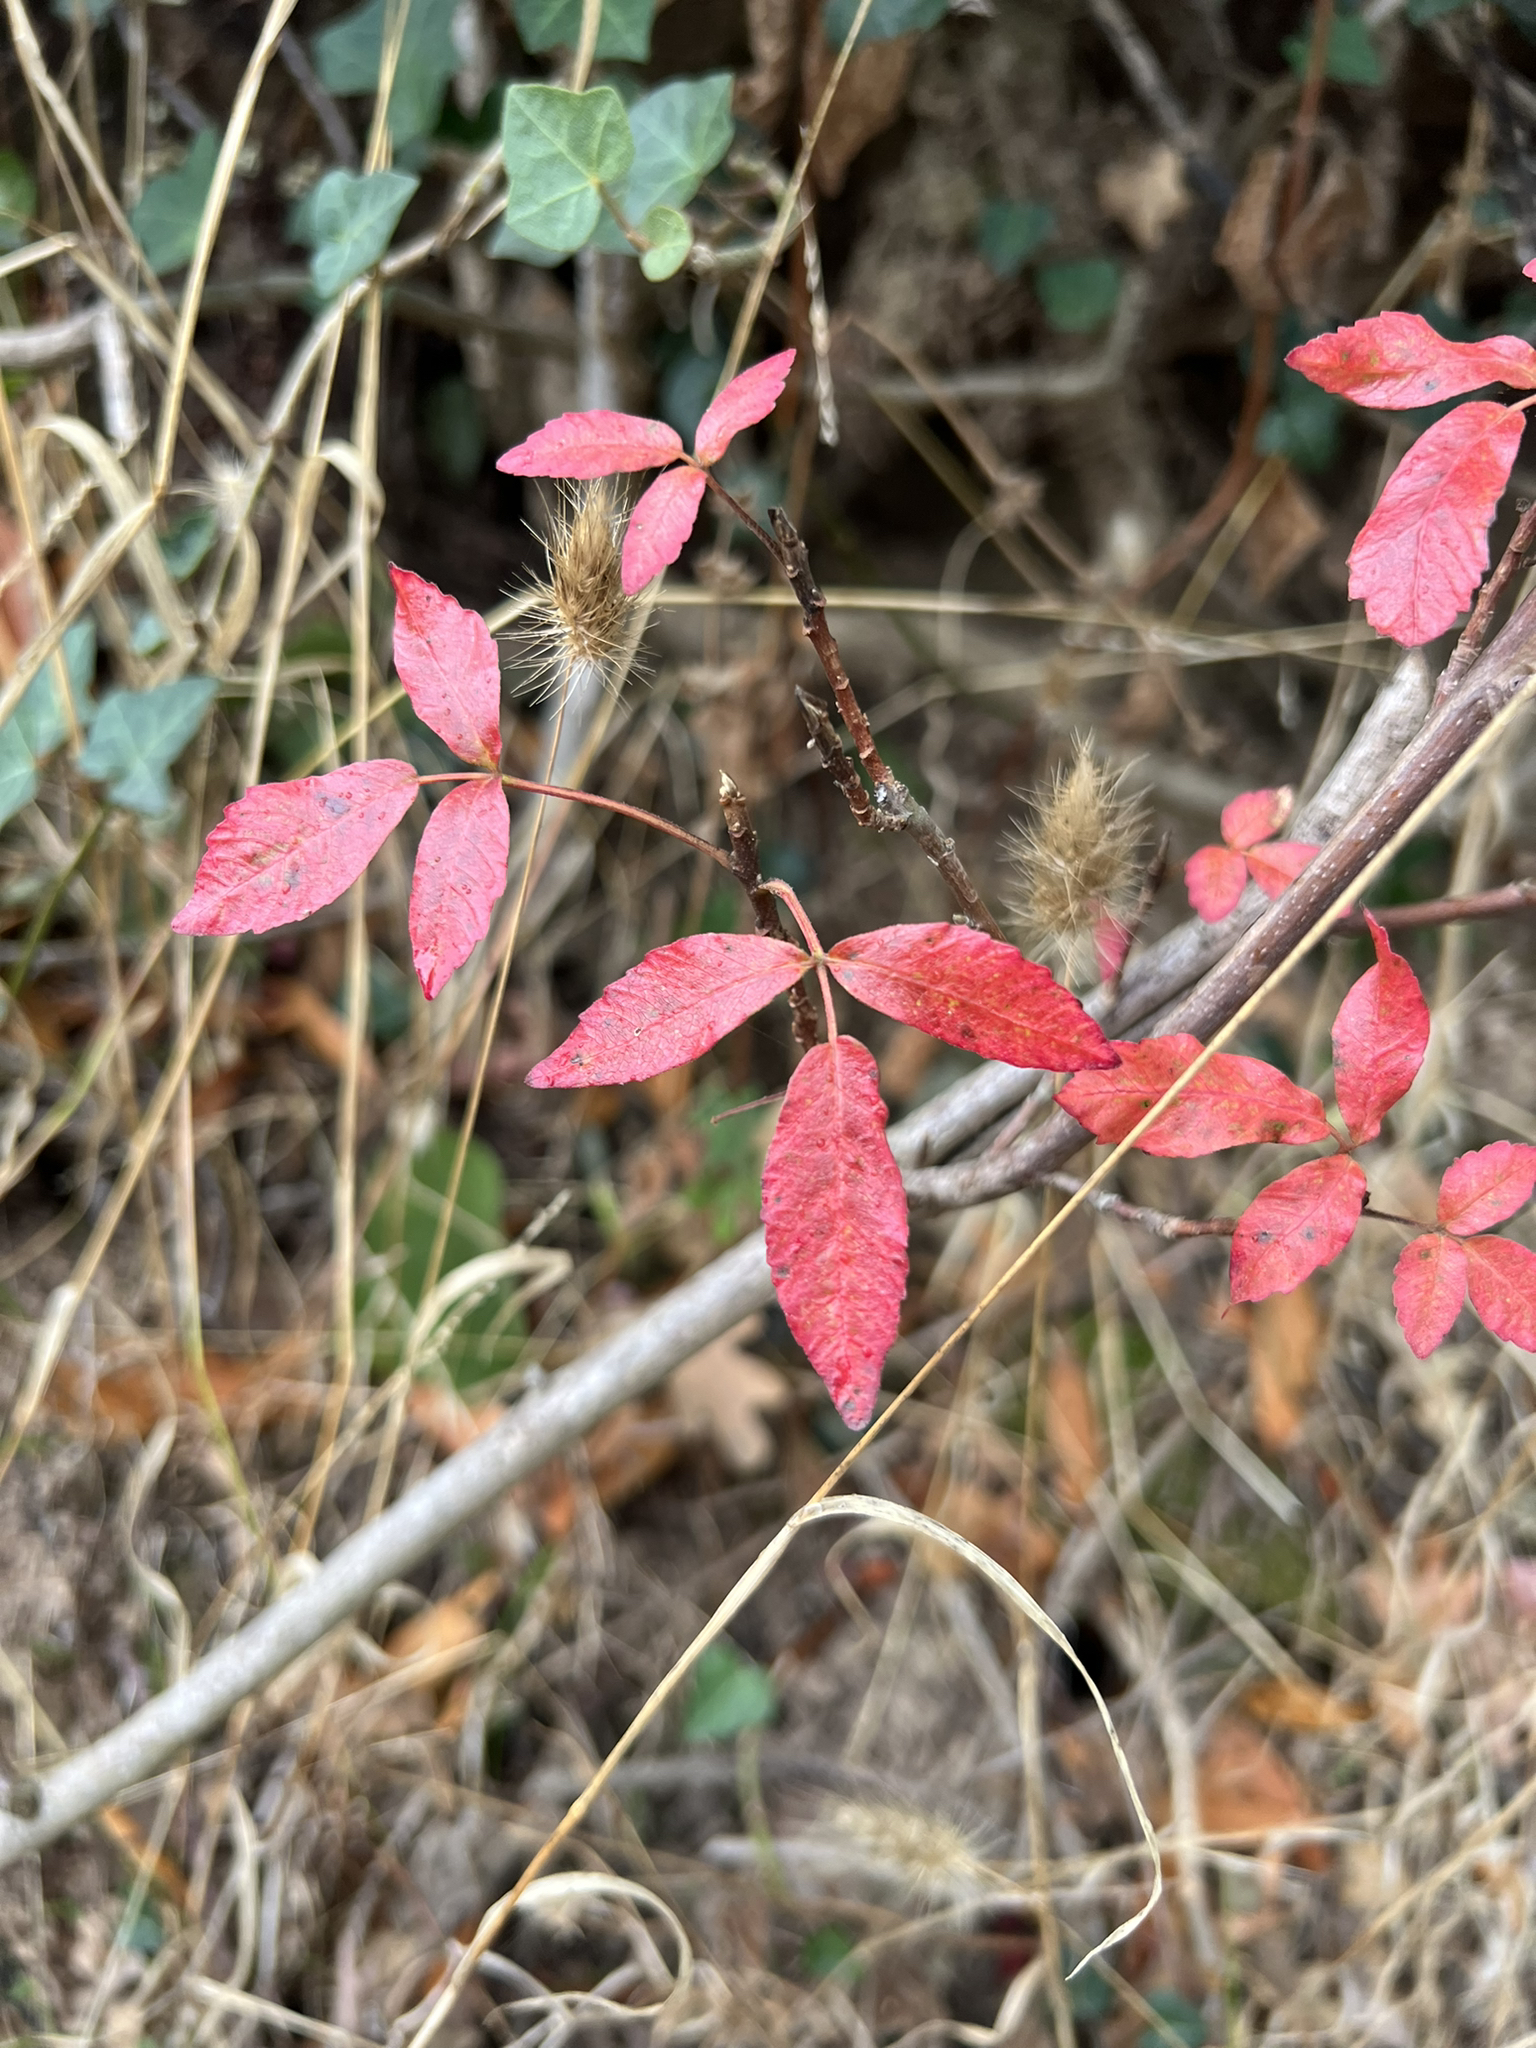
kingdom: Plantae
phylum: Tracheophyta
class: Magnoliopsida
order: Sapindales
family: Anacardiaceae
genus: Toxicodendron
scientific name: Toxicodendron diversilobum
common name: Pacific poison-oak
